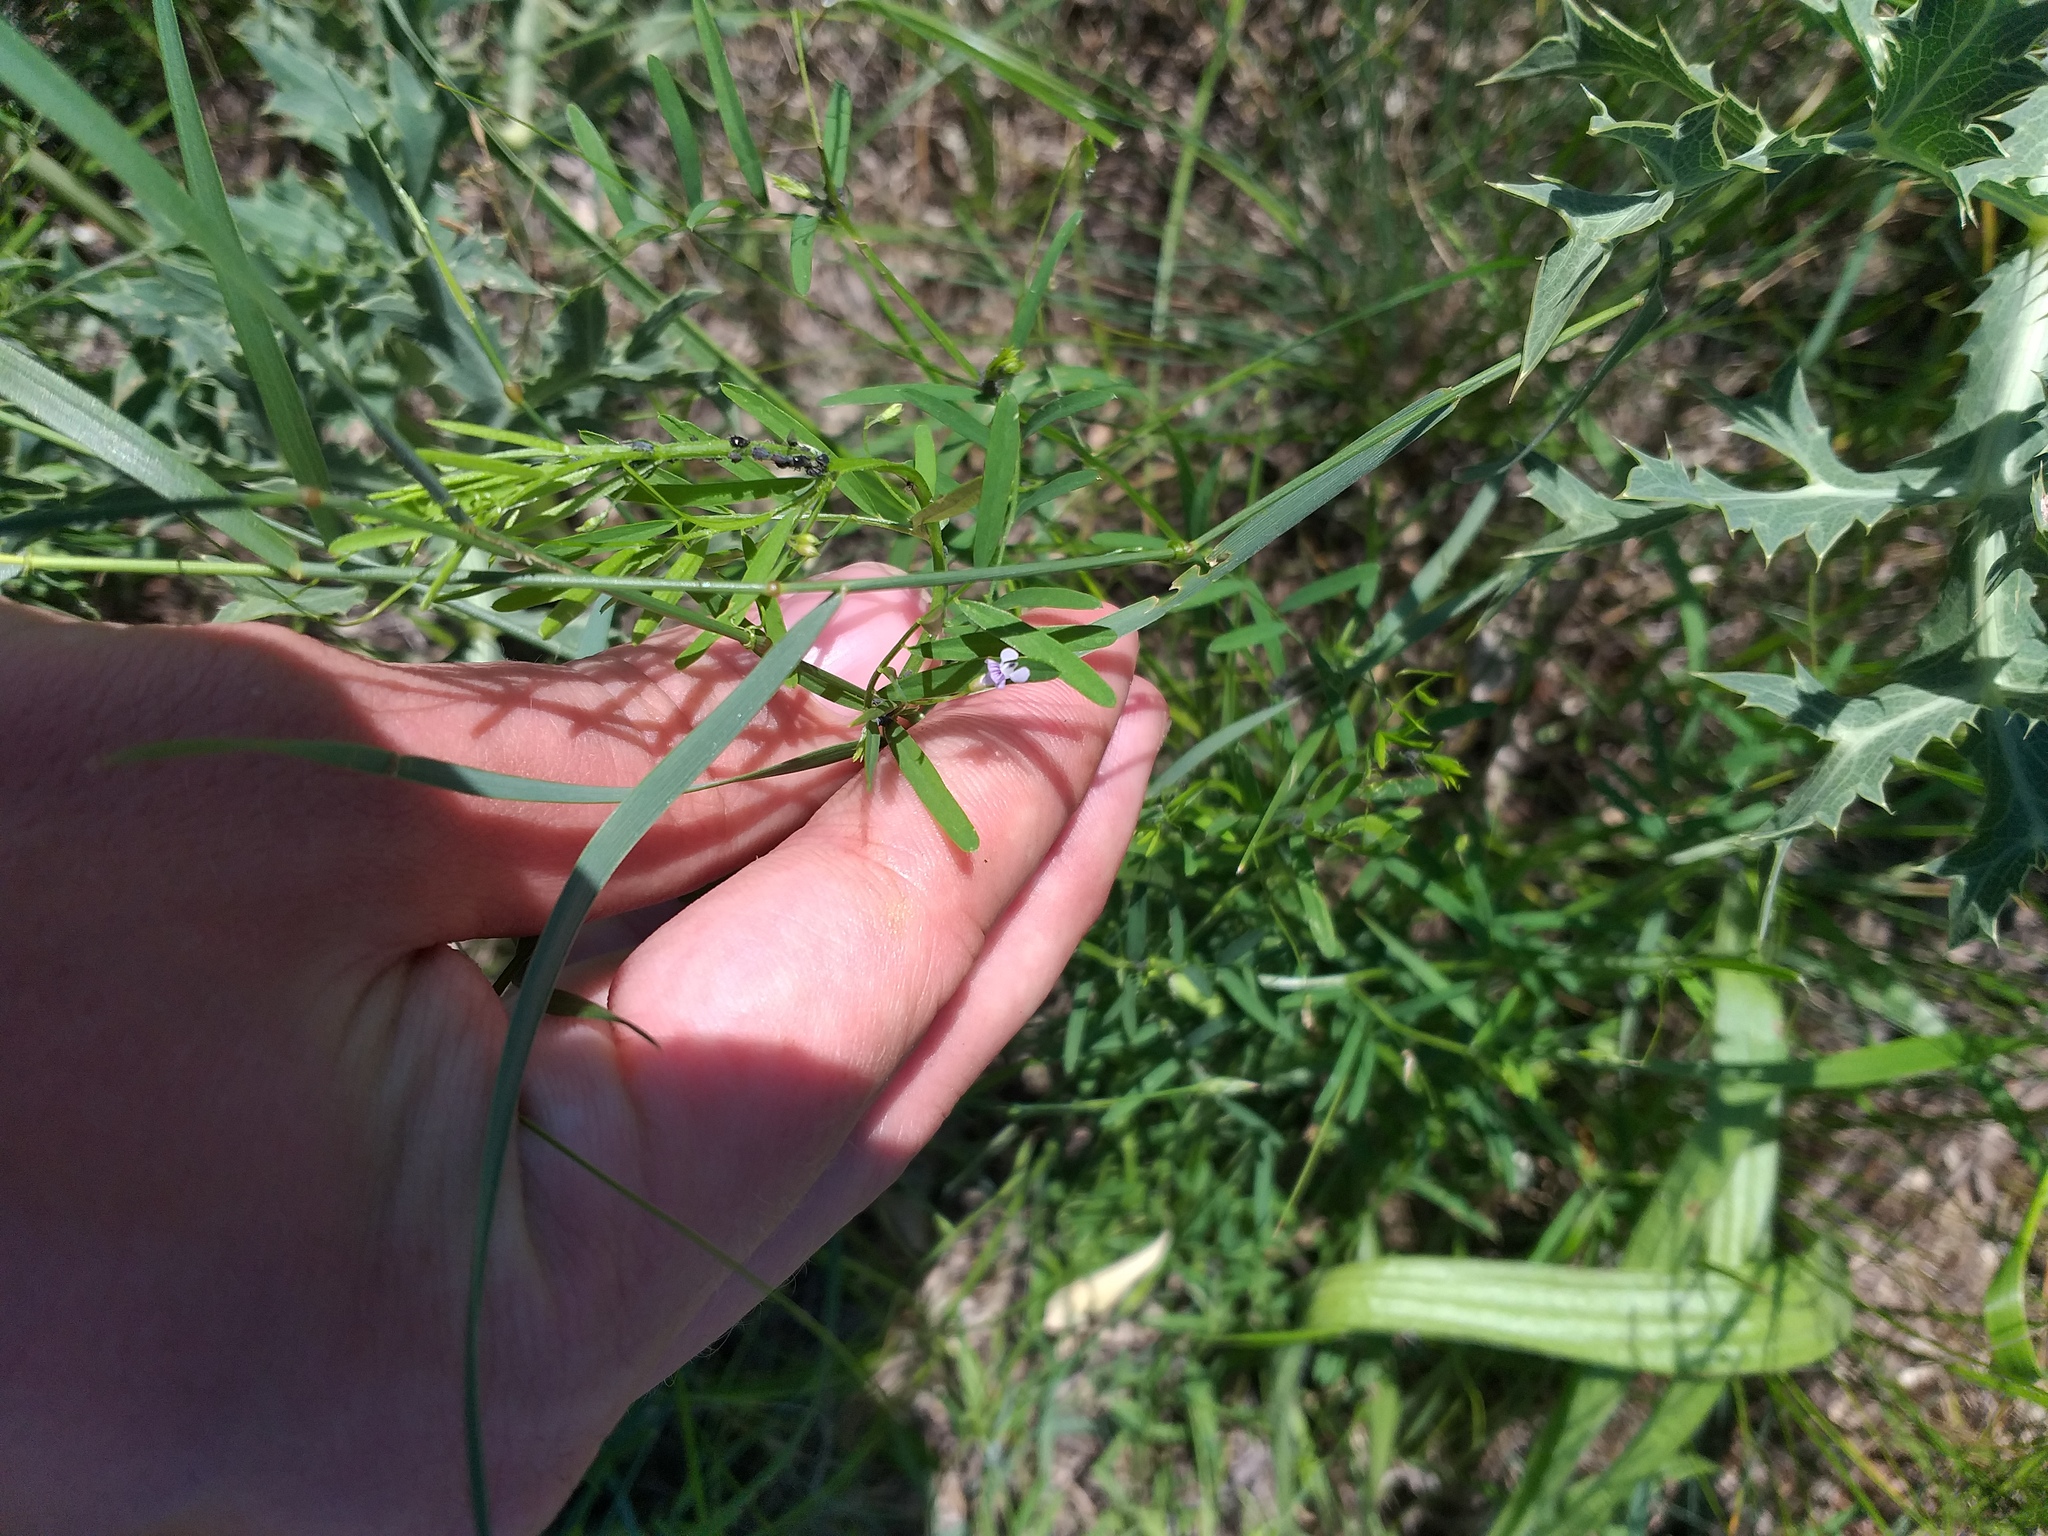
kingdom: Plantae
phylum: Tracheophyta
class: Magnoliopsida
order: Fabales
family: Fabaceae
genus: Vicia
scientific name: Vicia tetrasperma
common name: Smooth tare
